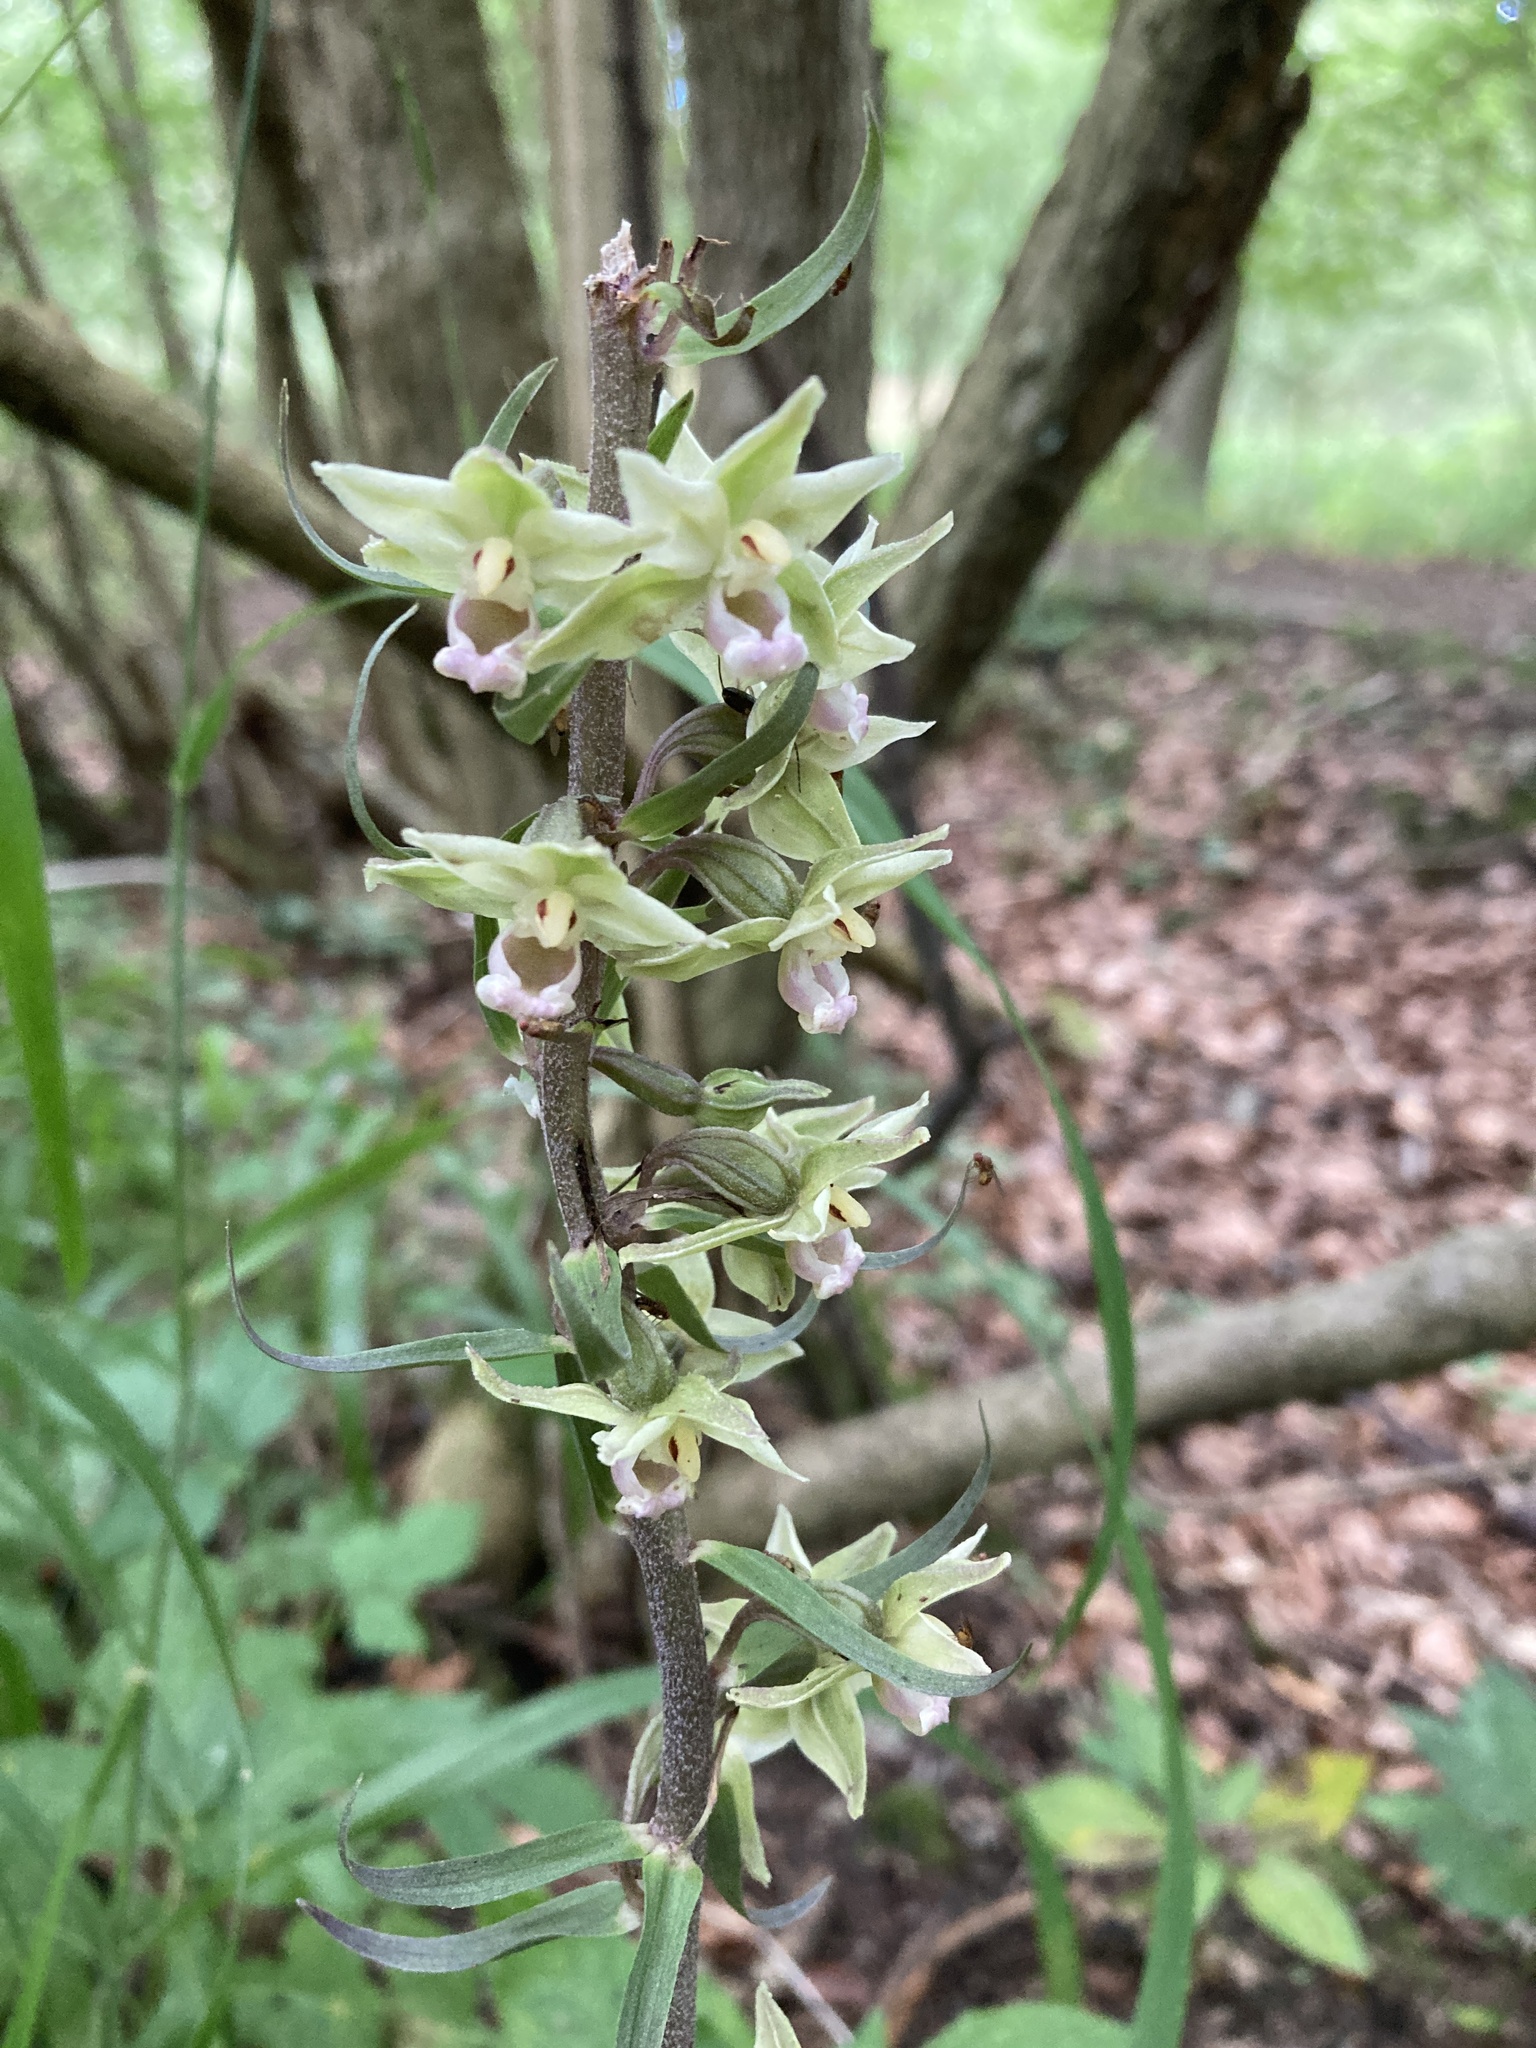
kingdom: Plantae
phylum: Tracheophyta
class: Liliopsida
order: Asparagales
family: Orchidaceae
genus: Epipactis
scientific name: Epipactis purpurata
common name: Violet helleborine
